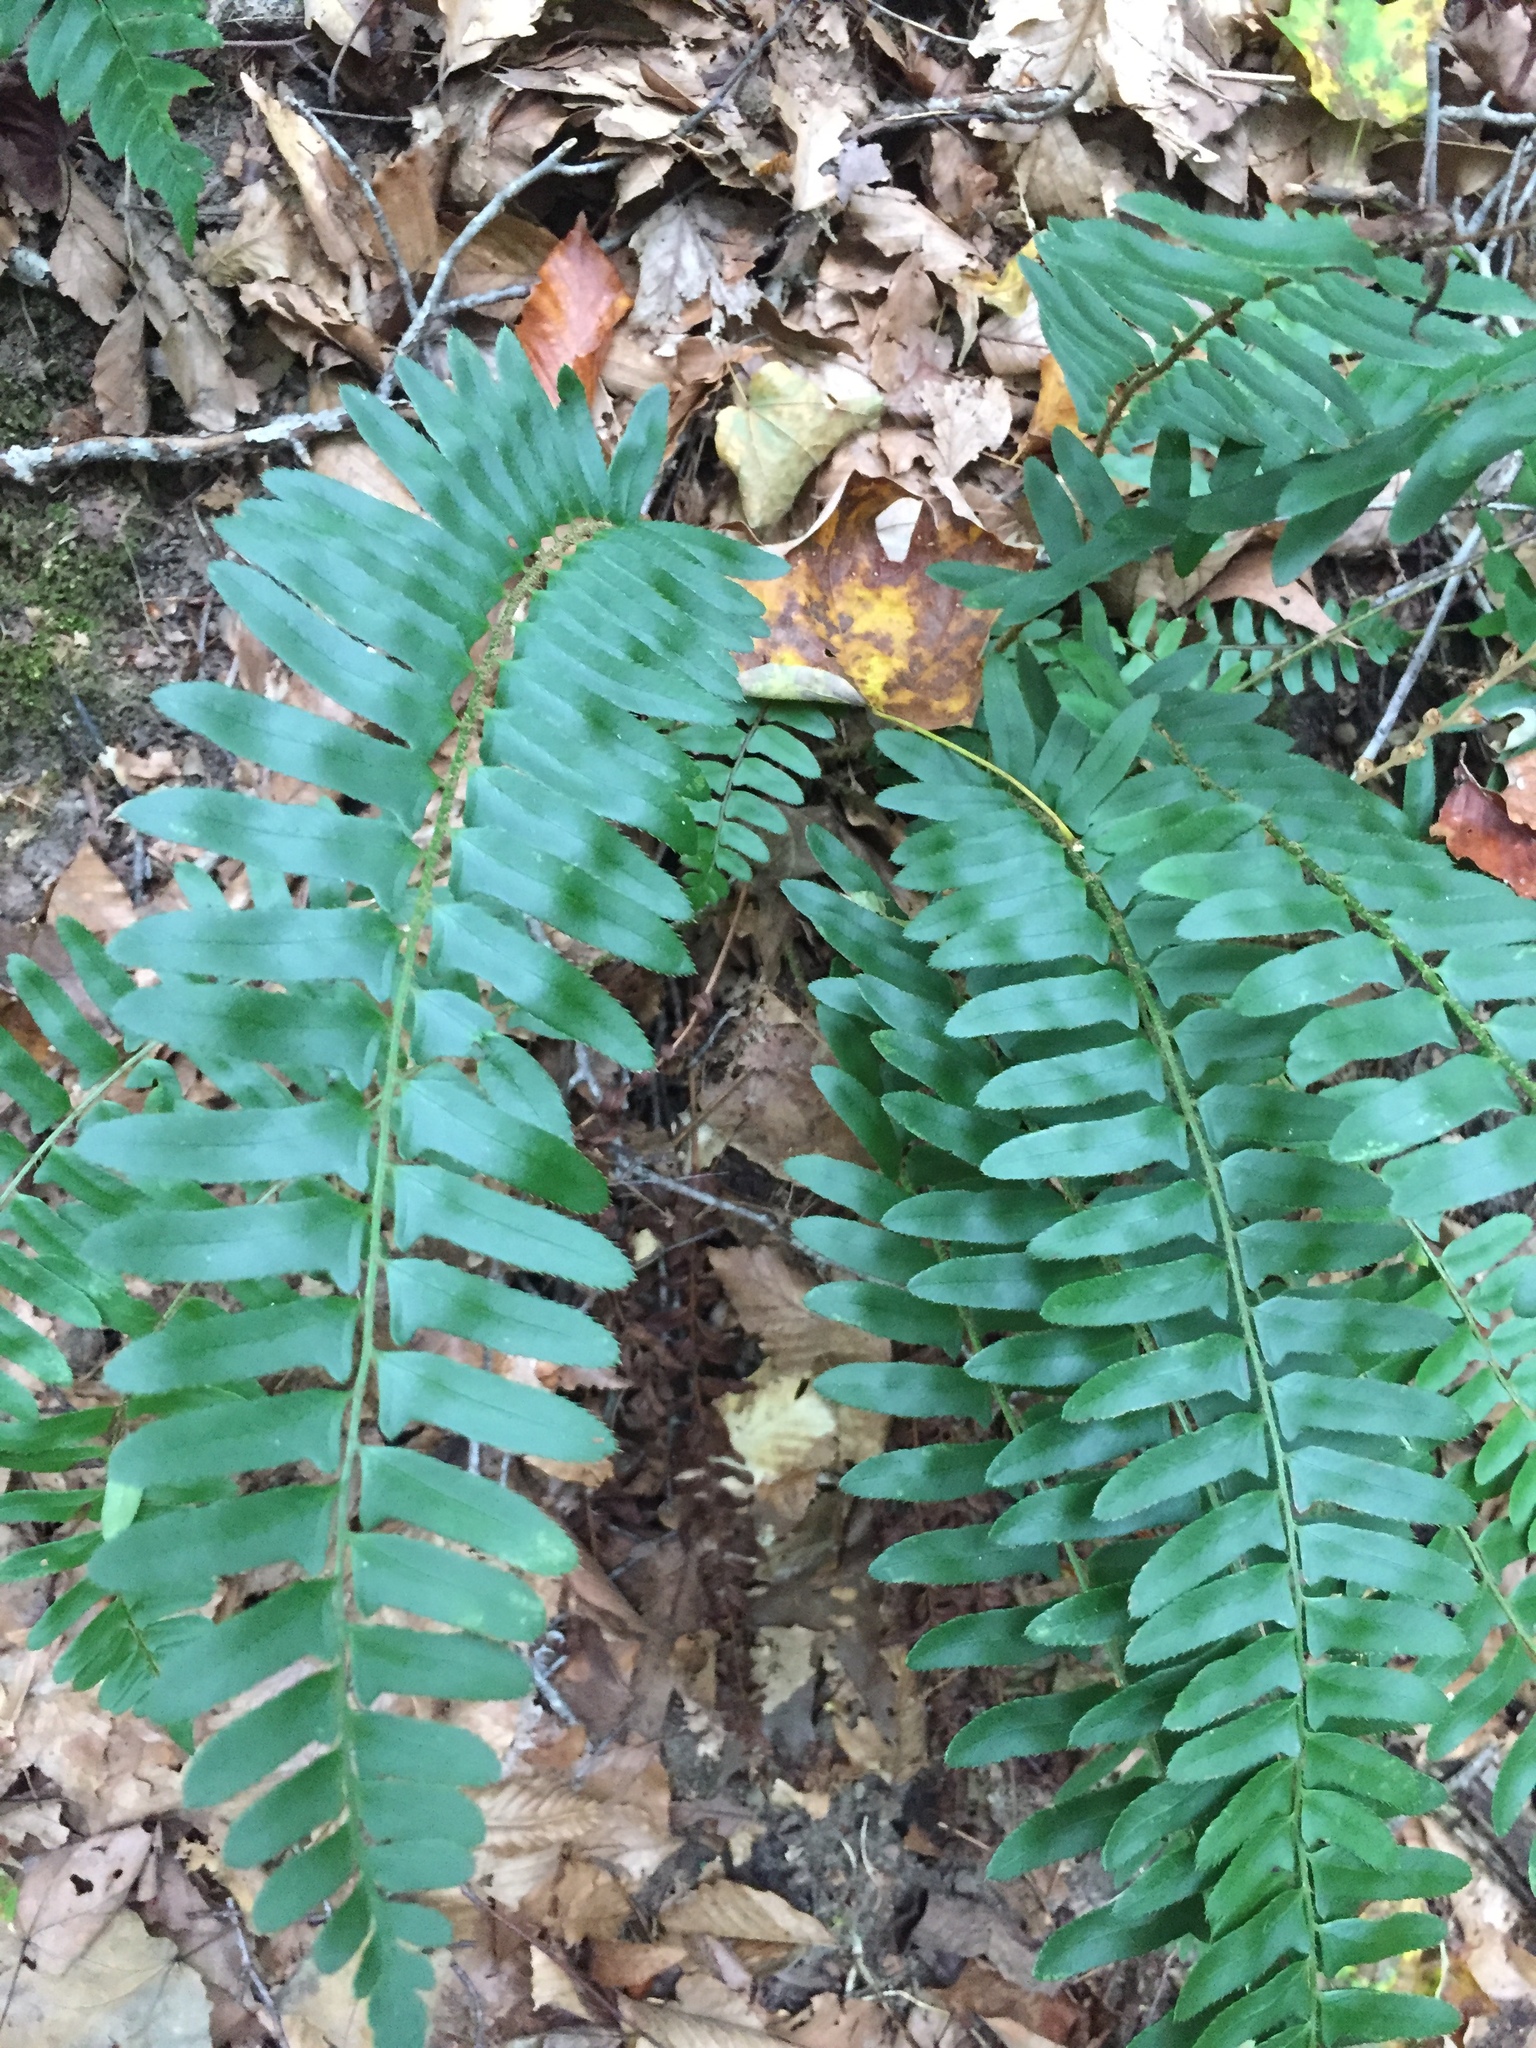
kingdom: Plantae
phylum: Tracheophyta
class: Polypodiopsida
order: Polypodiales
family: Dryopteridaceae
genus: Polystichum
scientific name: Polystichum acrostichoides
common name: Christmas fern
